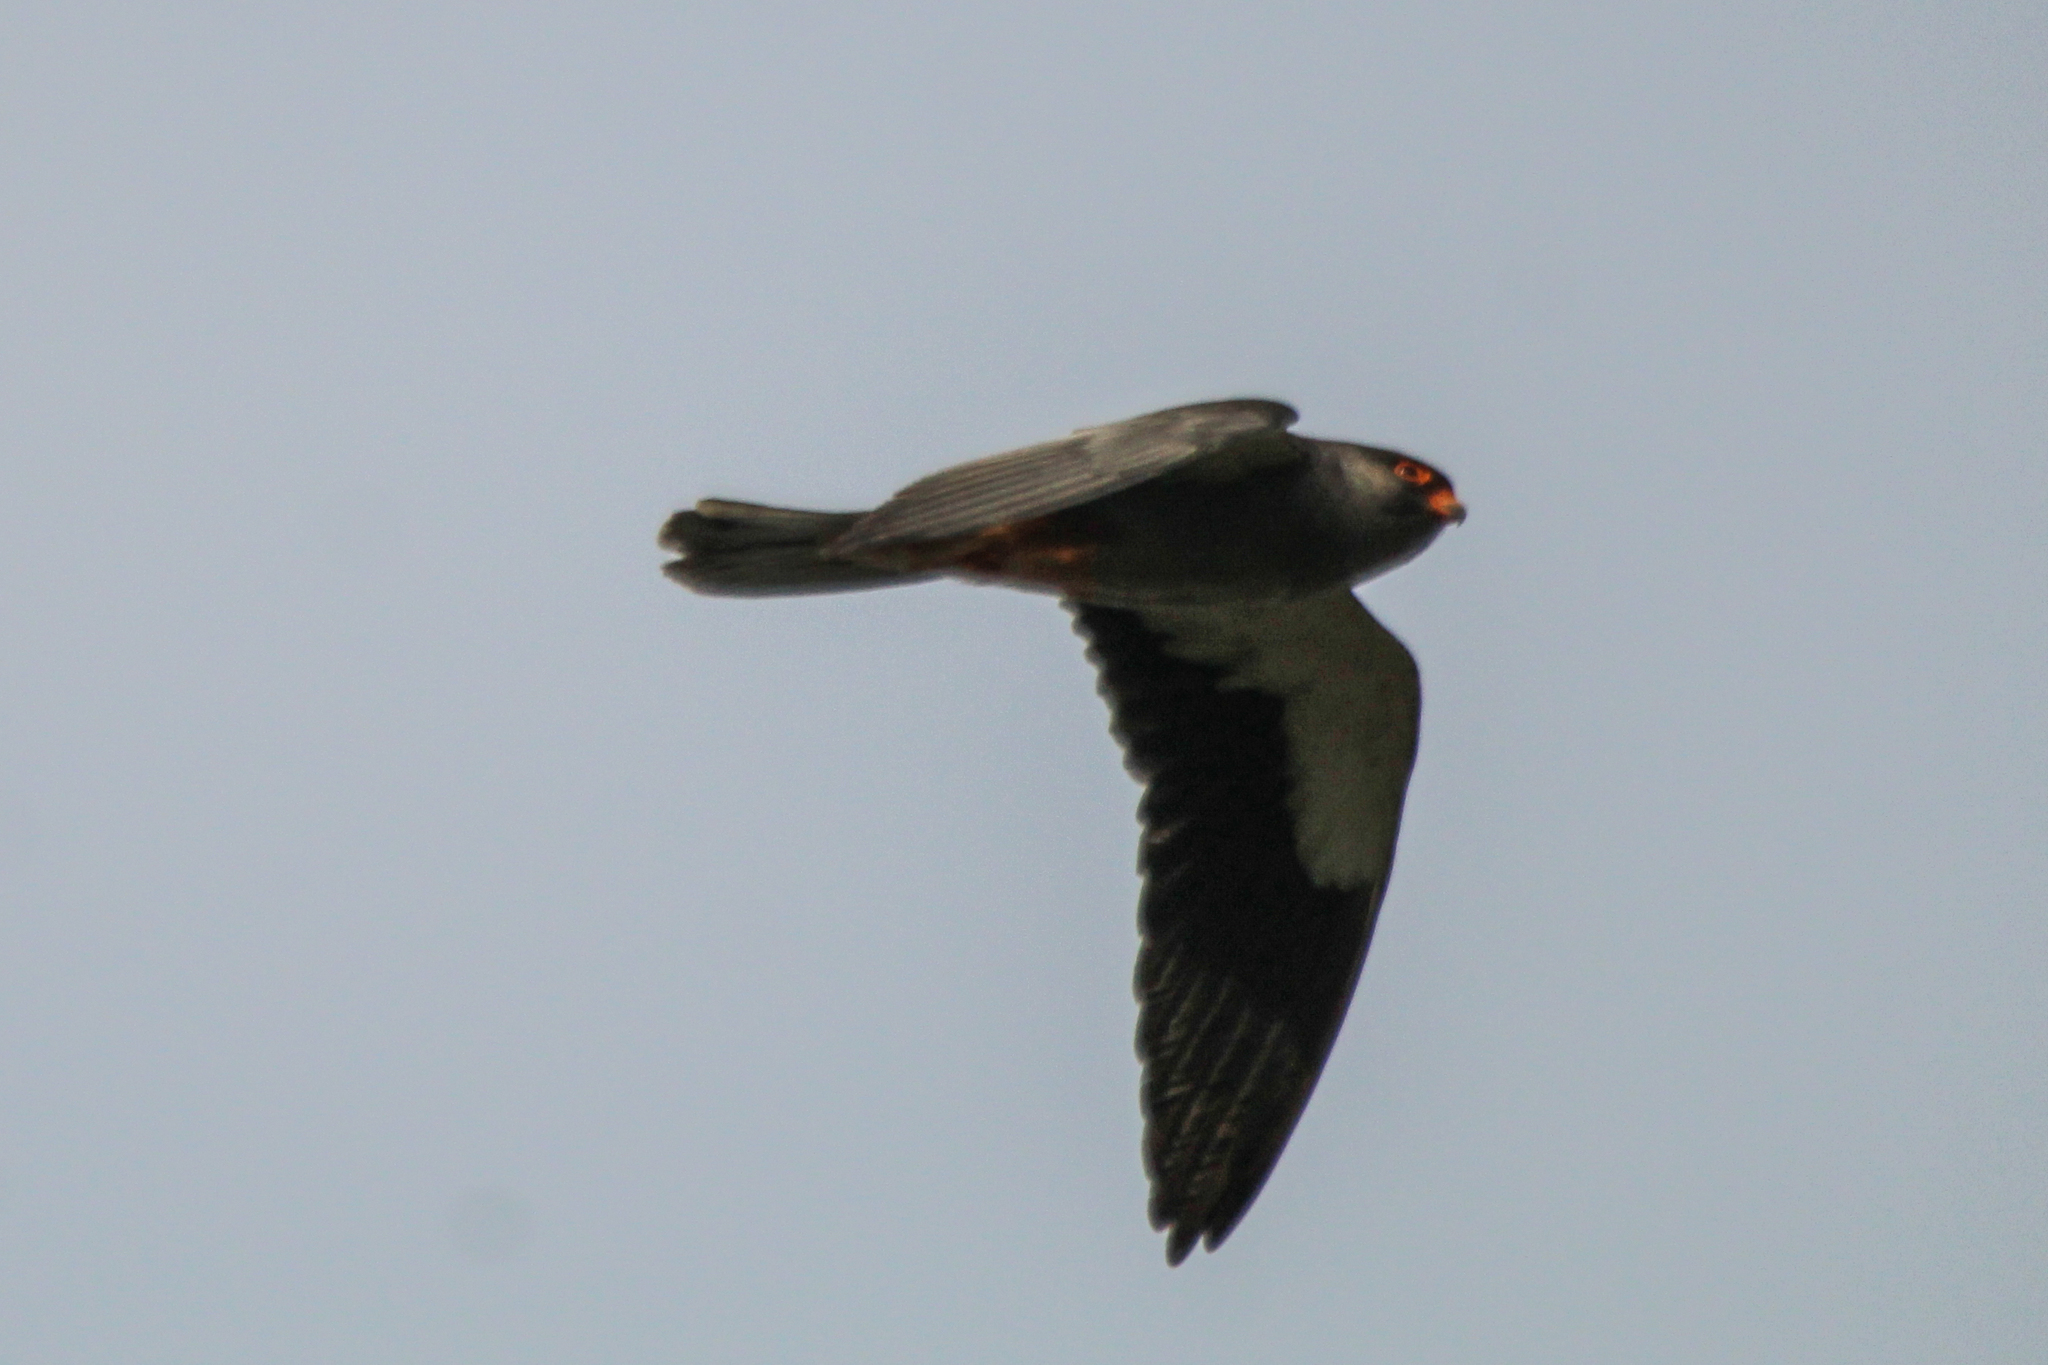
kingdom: Animalia
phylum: Chordata
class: Aves
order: Falconiformes
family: Falconidae
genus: Falco
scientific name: Falco amurensis
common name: Amur falcon
